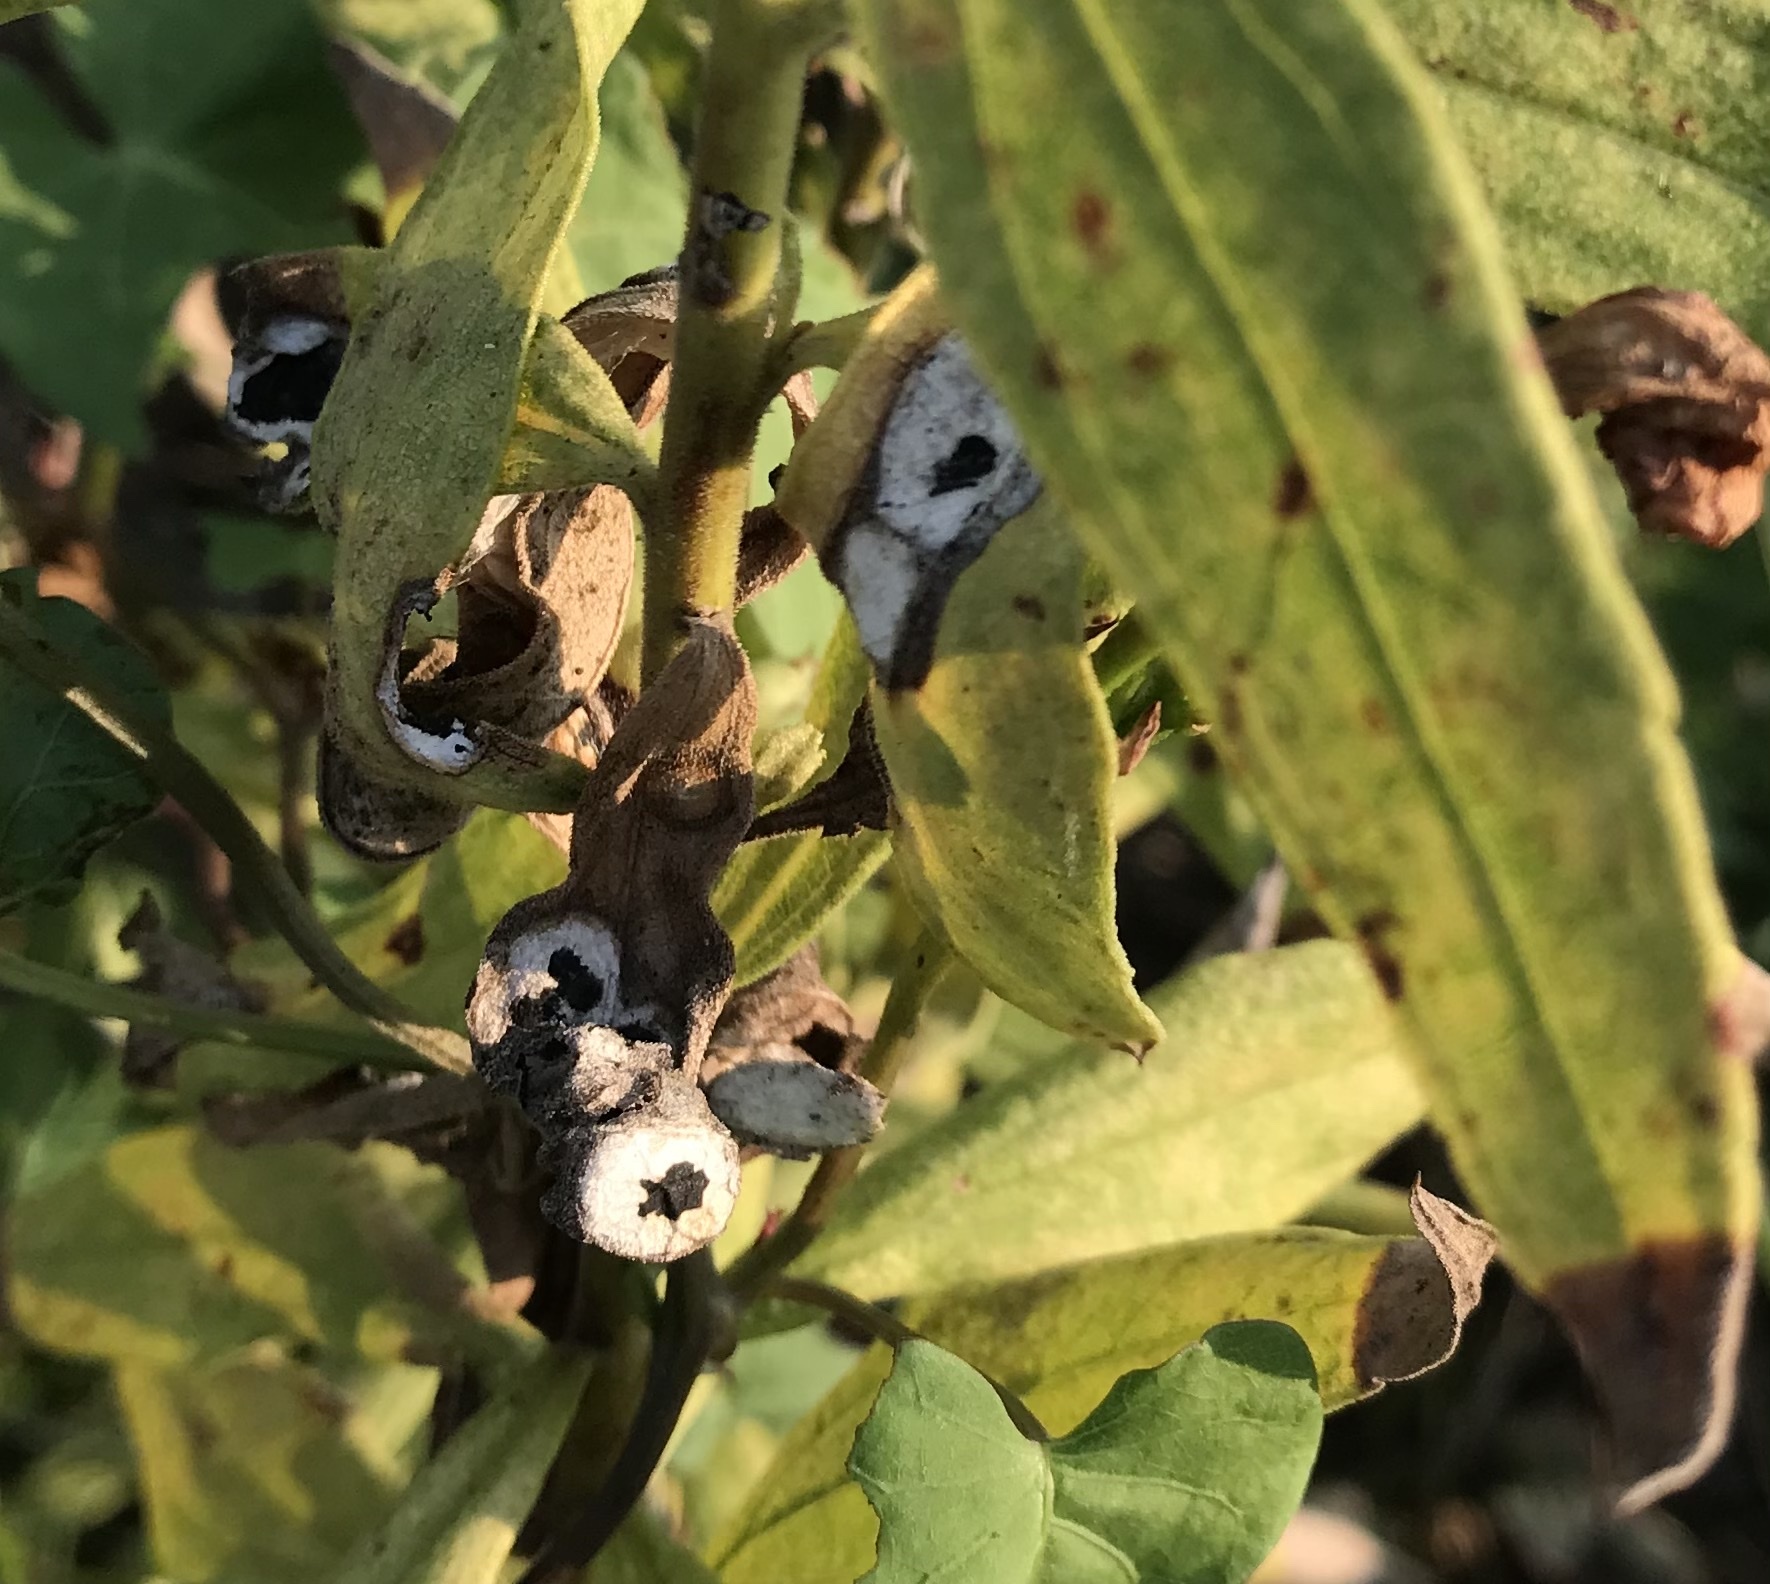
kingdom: Animalia
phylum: Arthropoda
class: Insecta
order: Diptera
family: Cecidomyiidae
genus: Asteromyia
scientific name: Asteromyia carbonifera
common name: Carbonifera goldenrod gall midge
